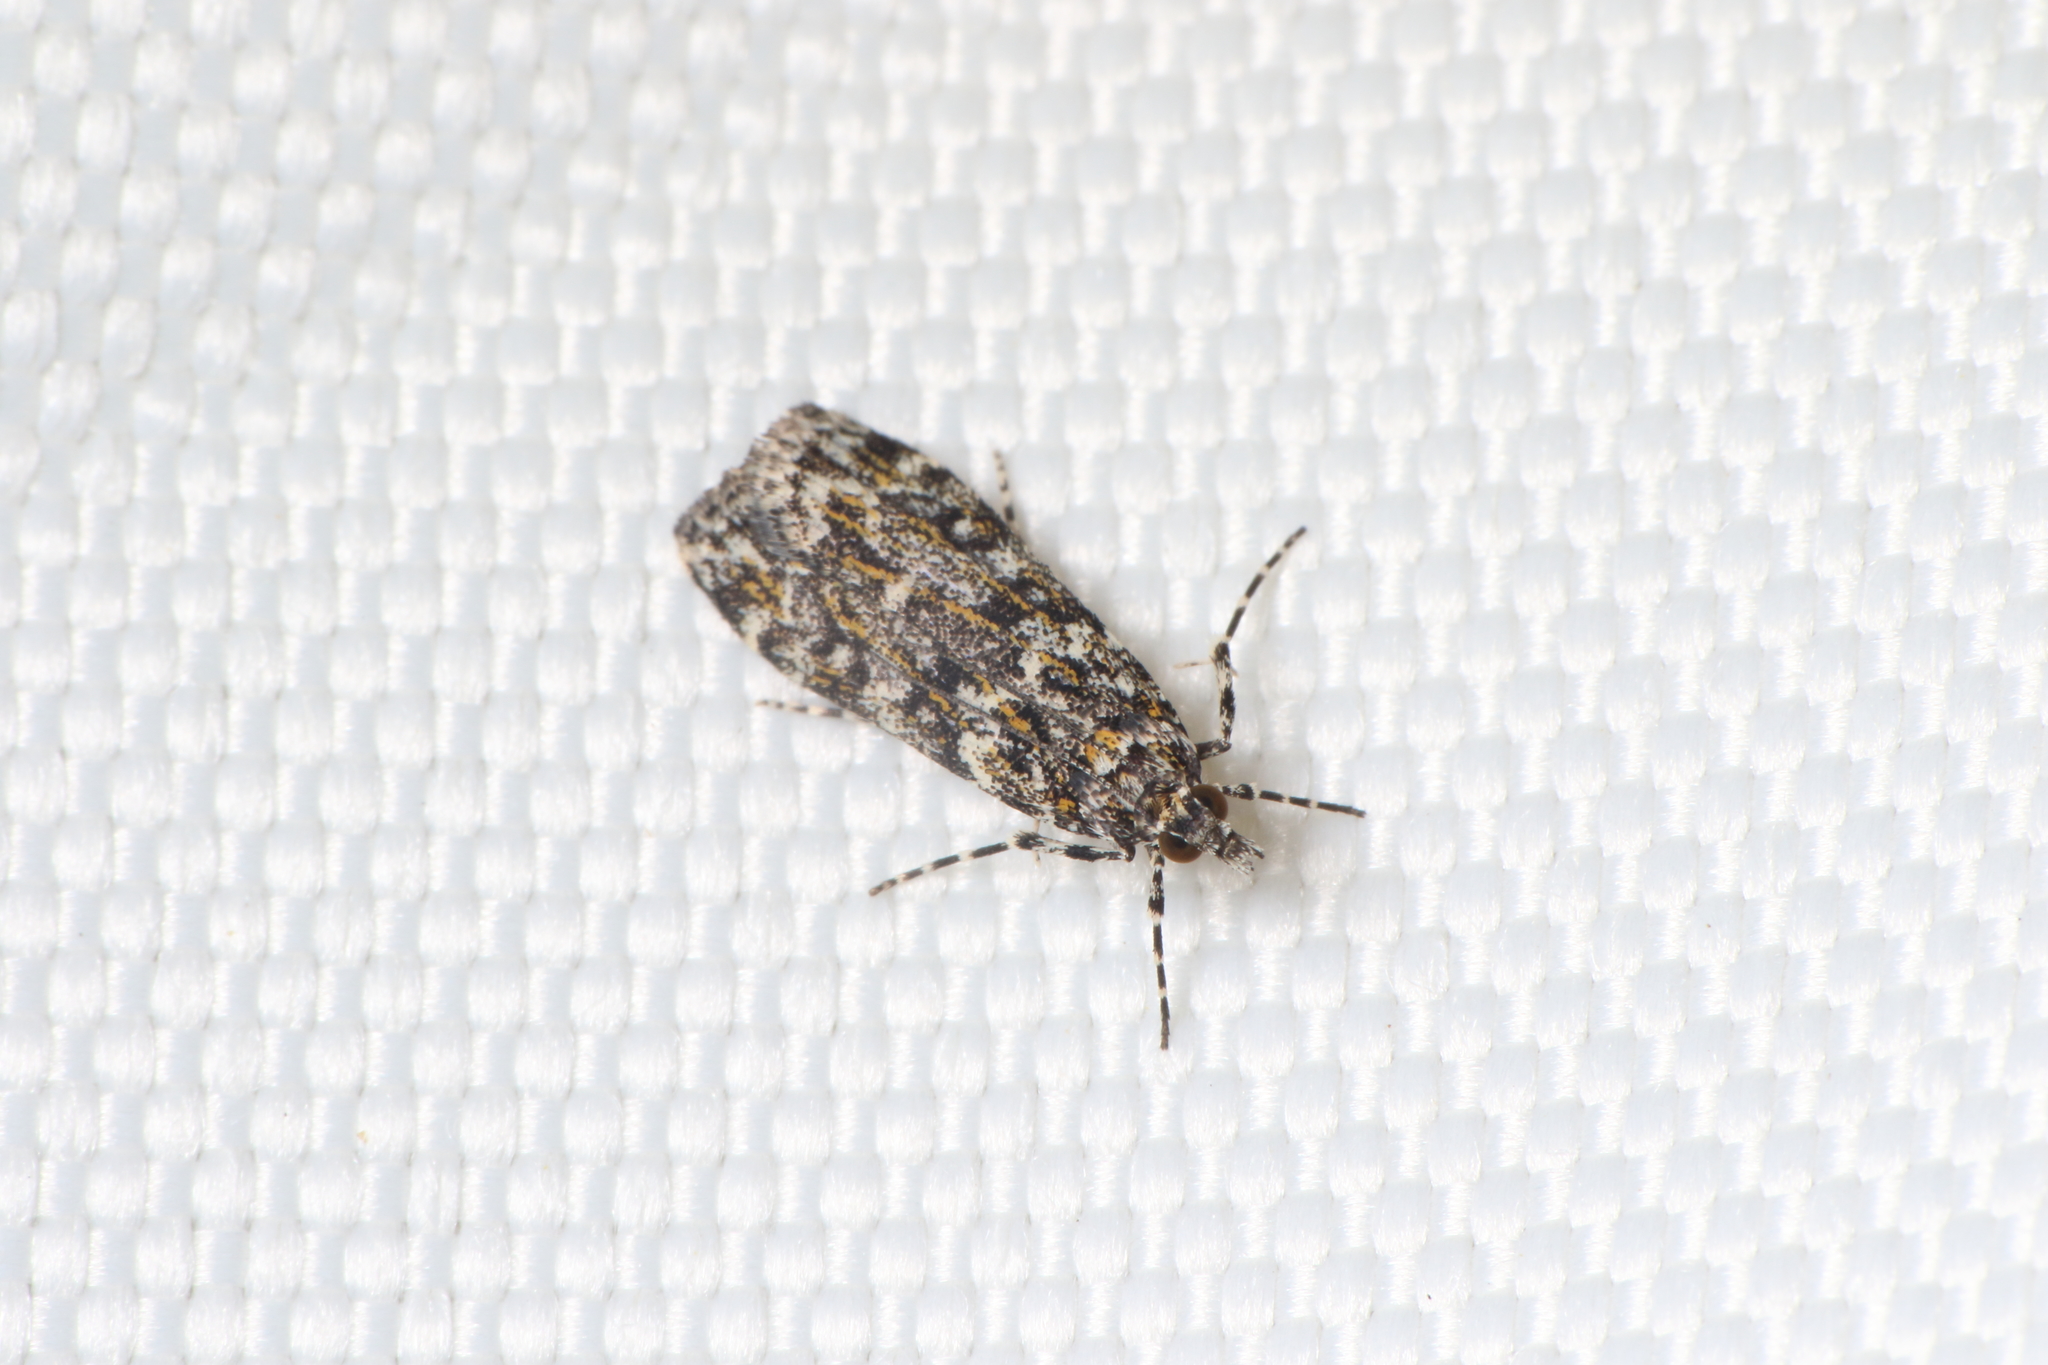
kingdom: Animalia
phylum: Arthropoda
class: Insecta
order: Lepidoptera
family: Crambidae
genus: Eudonia
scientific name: Eudonia
